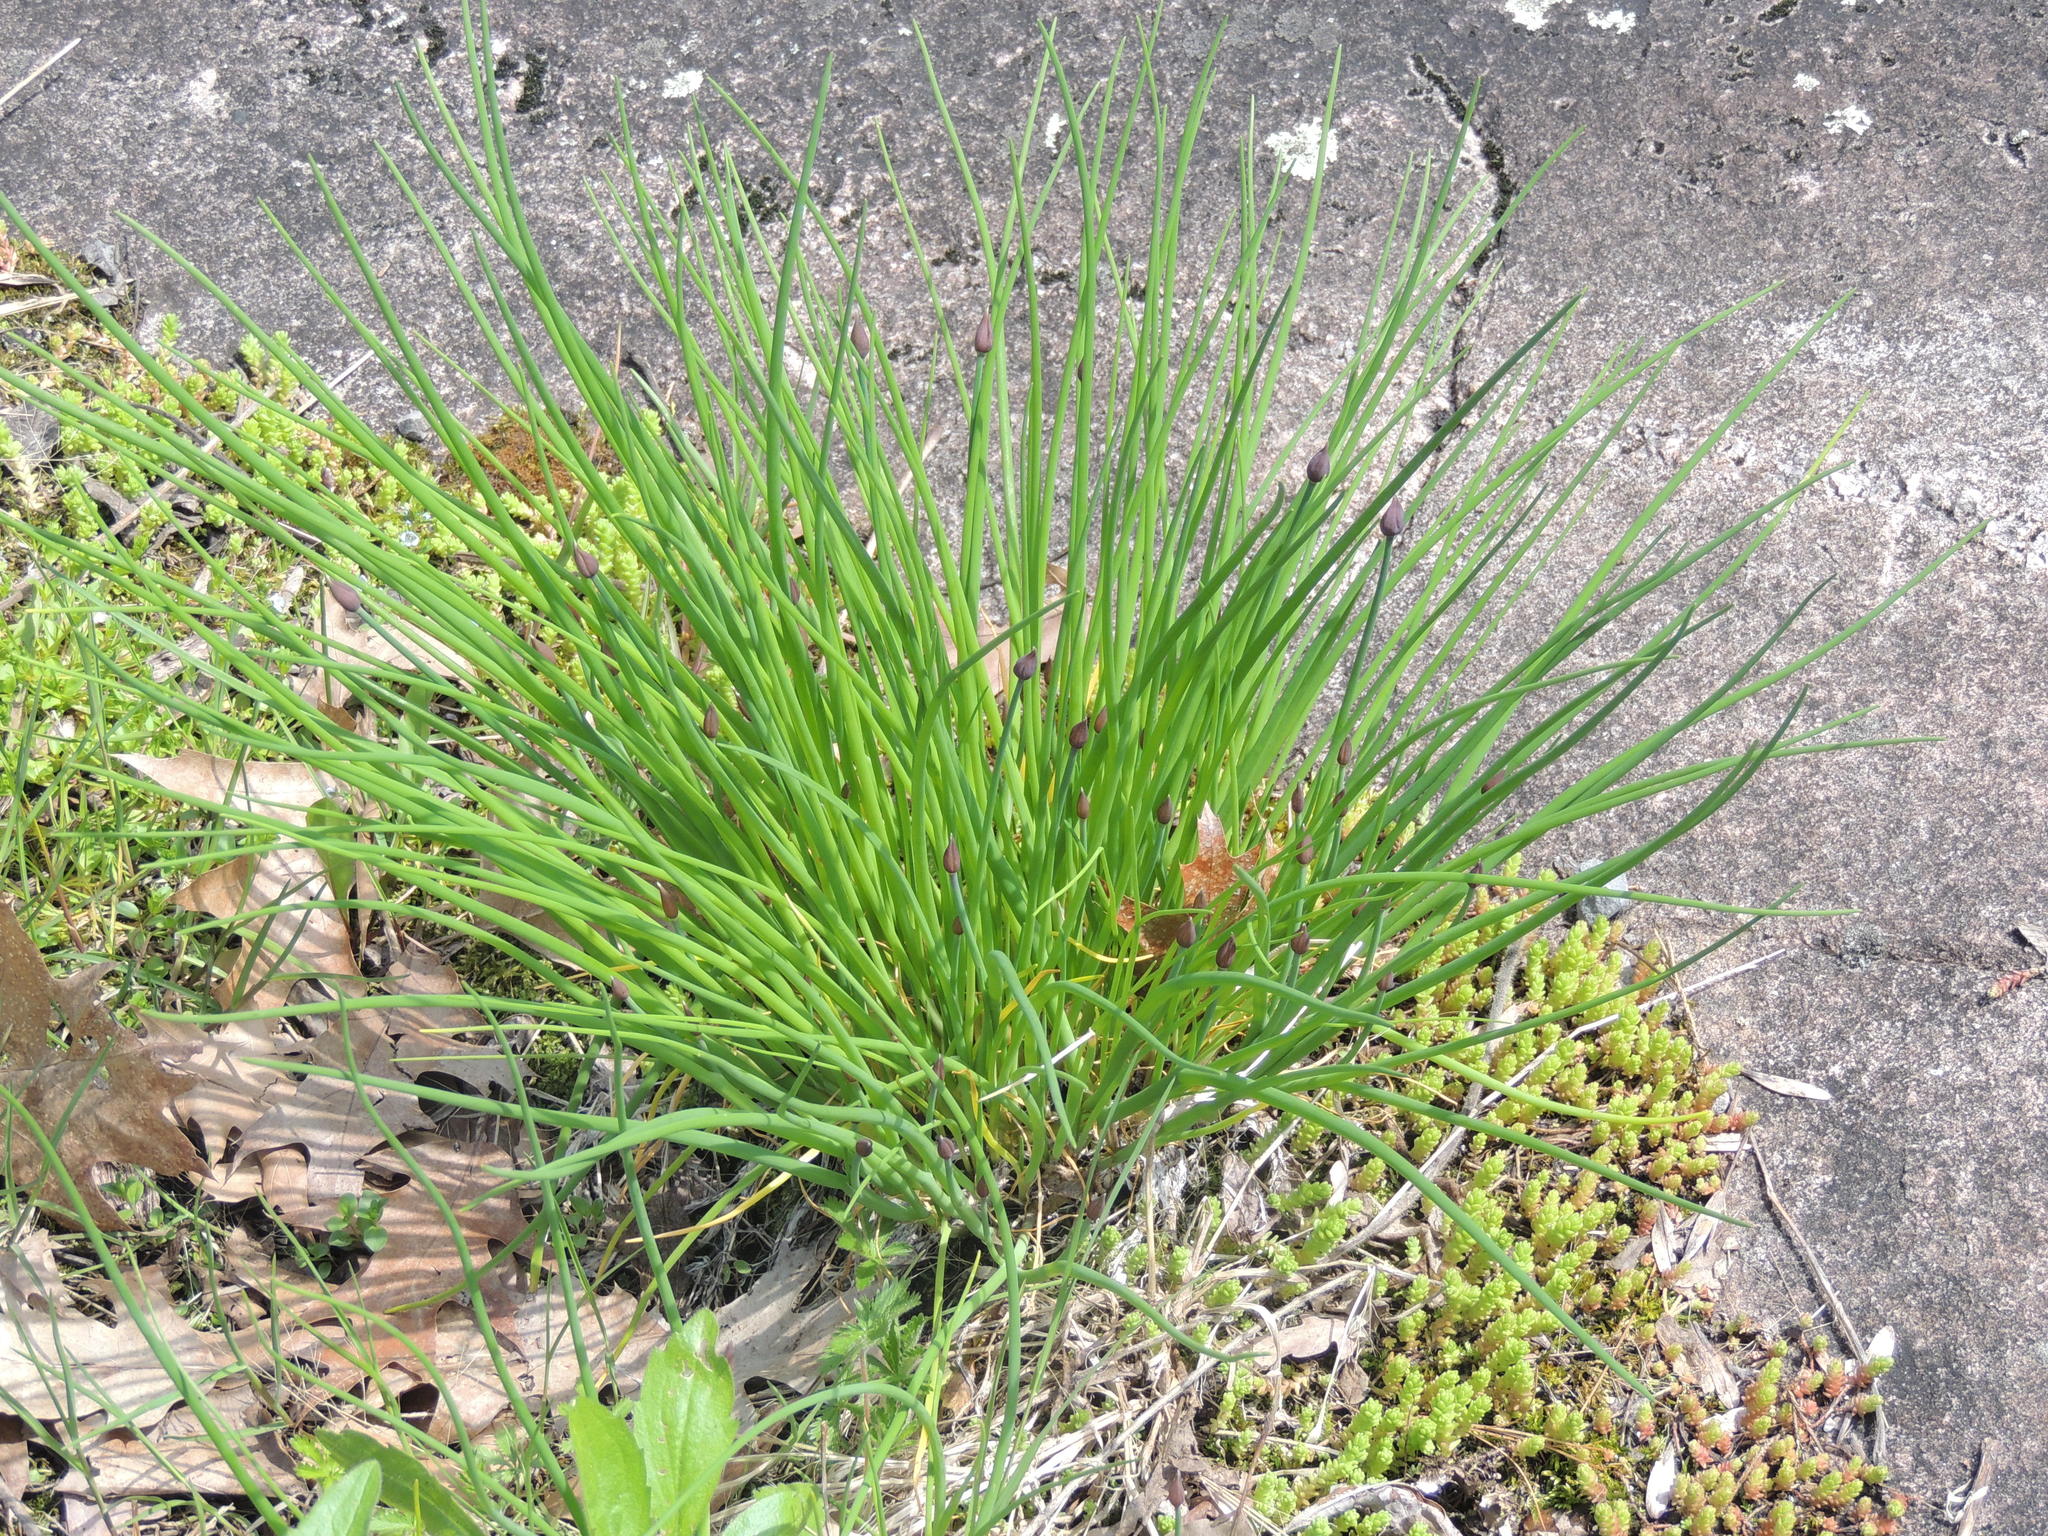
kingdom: Plantae
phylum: Tracheophyta
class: Liliopsida
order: Asparagales
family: Amaryllidaceae
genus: Allium
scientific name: Allium schoenoprasum
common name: Chives
